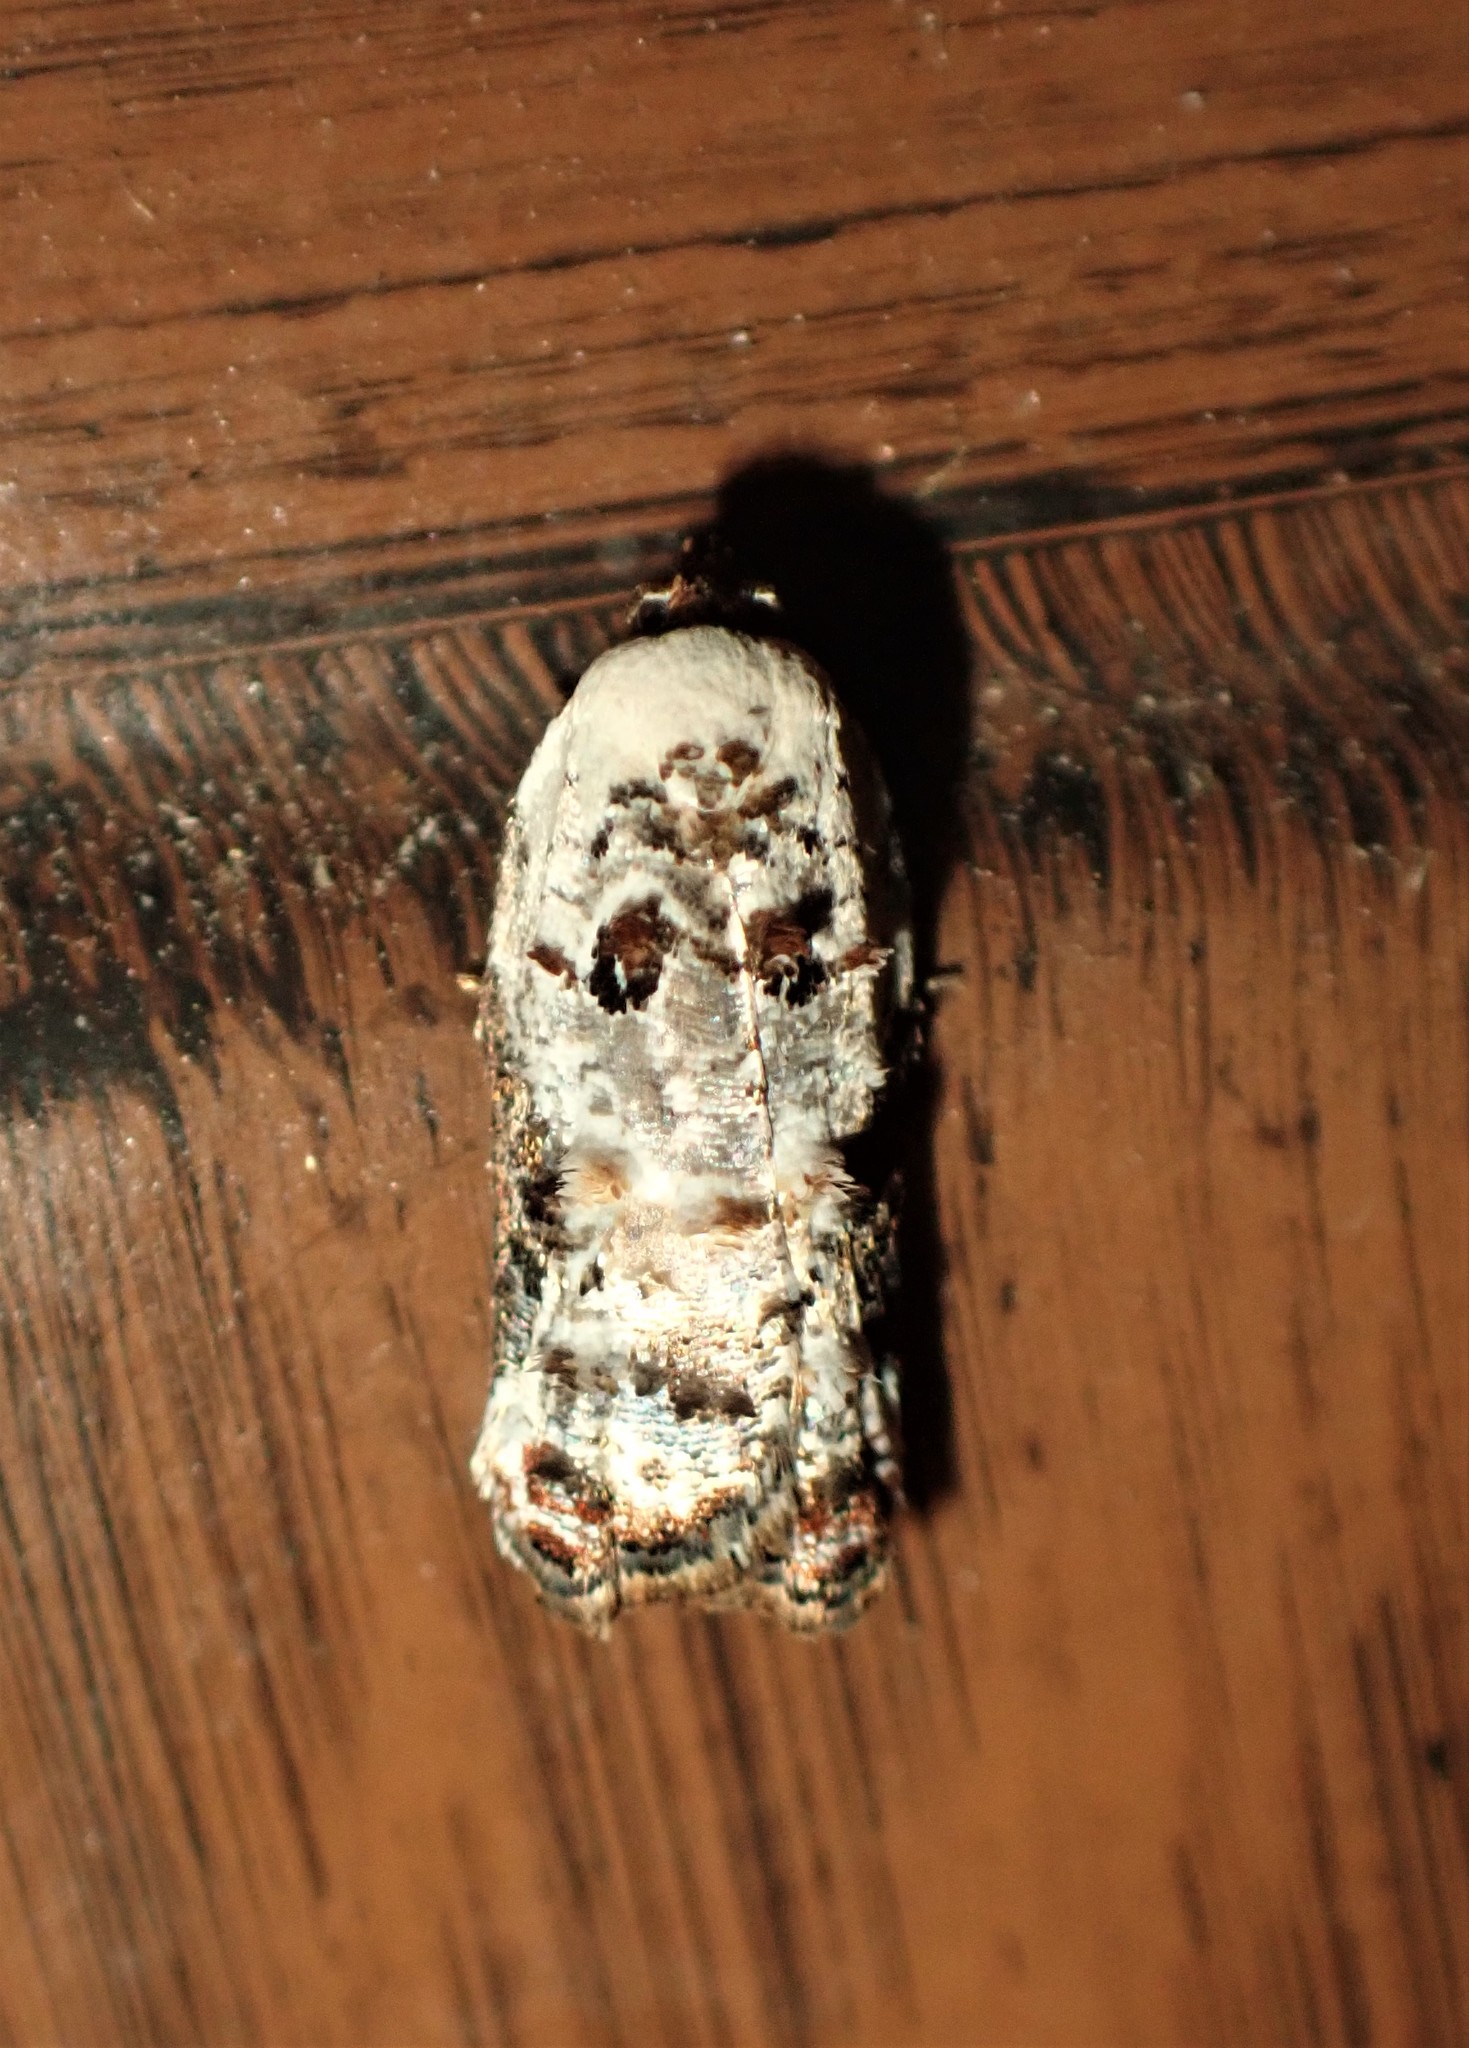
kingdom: Animalia
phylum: Arthropoda
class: Insecta
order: Lepidoptera
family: Tortricidae
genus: Acleris
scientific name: Acleris nivisellana
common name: Snowy-shouldered acleris moth
